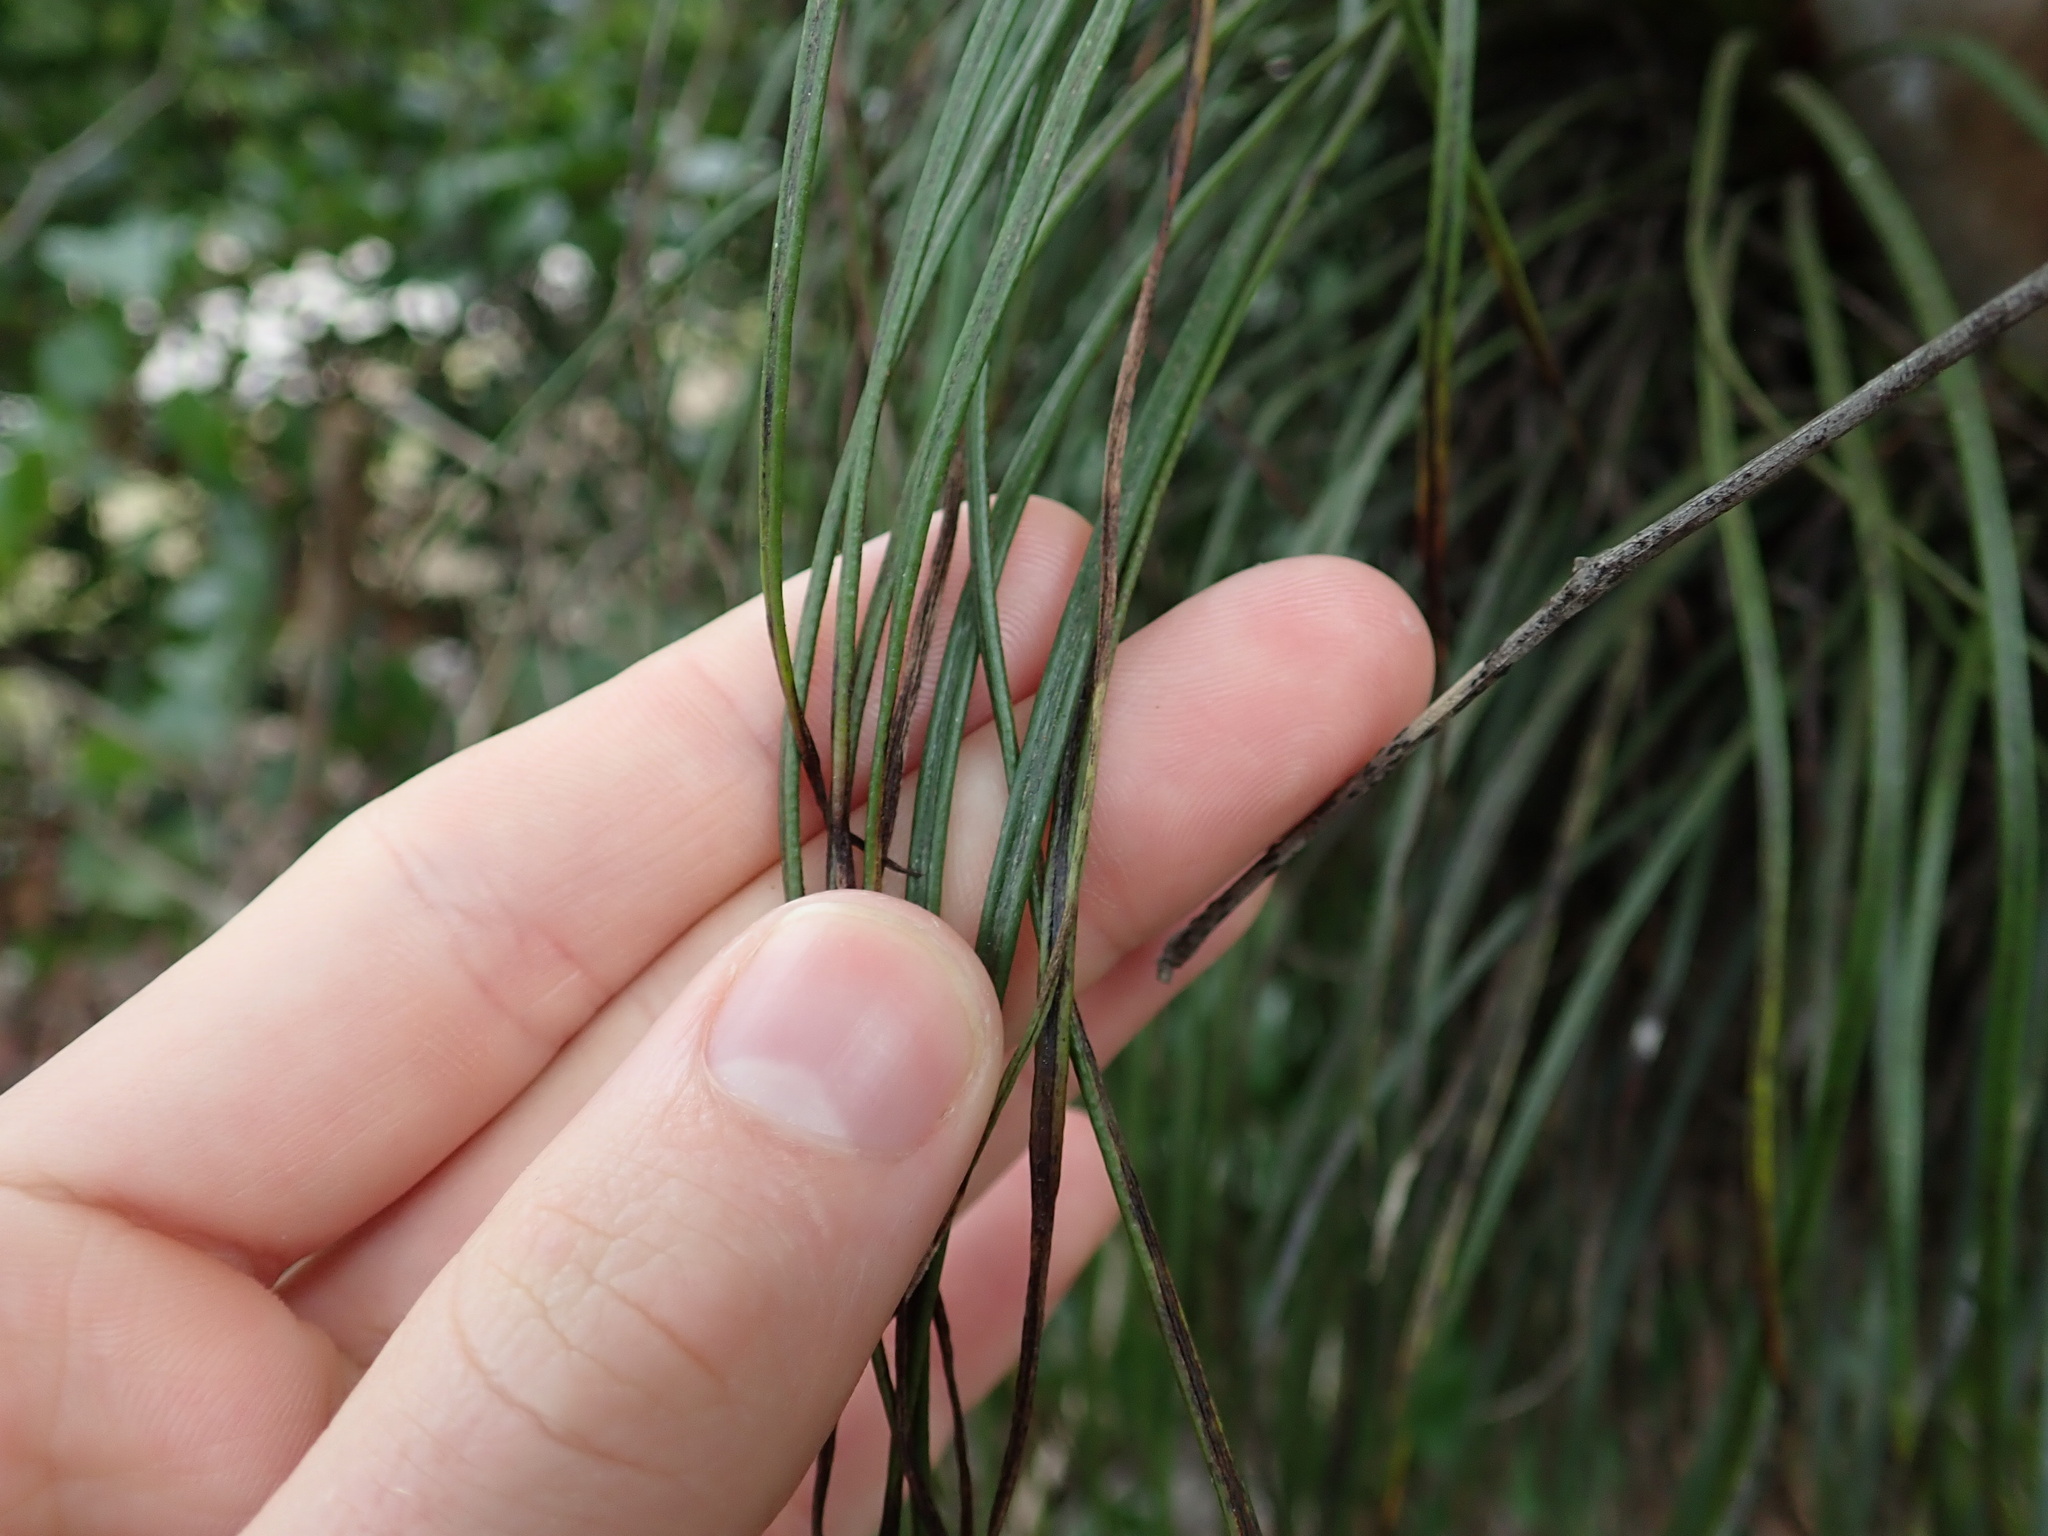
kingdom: Plantae
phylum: Tracheophyta
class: Polypodiopsida
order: Polypodiales
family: Pteridaceae
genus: Vittaria
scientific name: Vittaria lineata
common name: Shoestring fern
